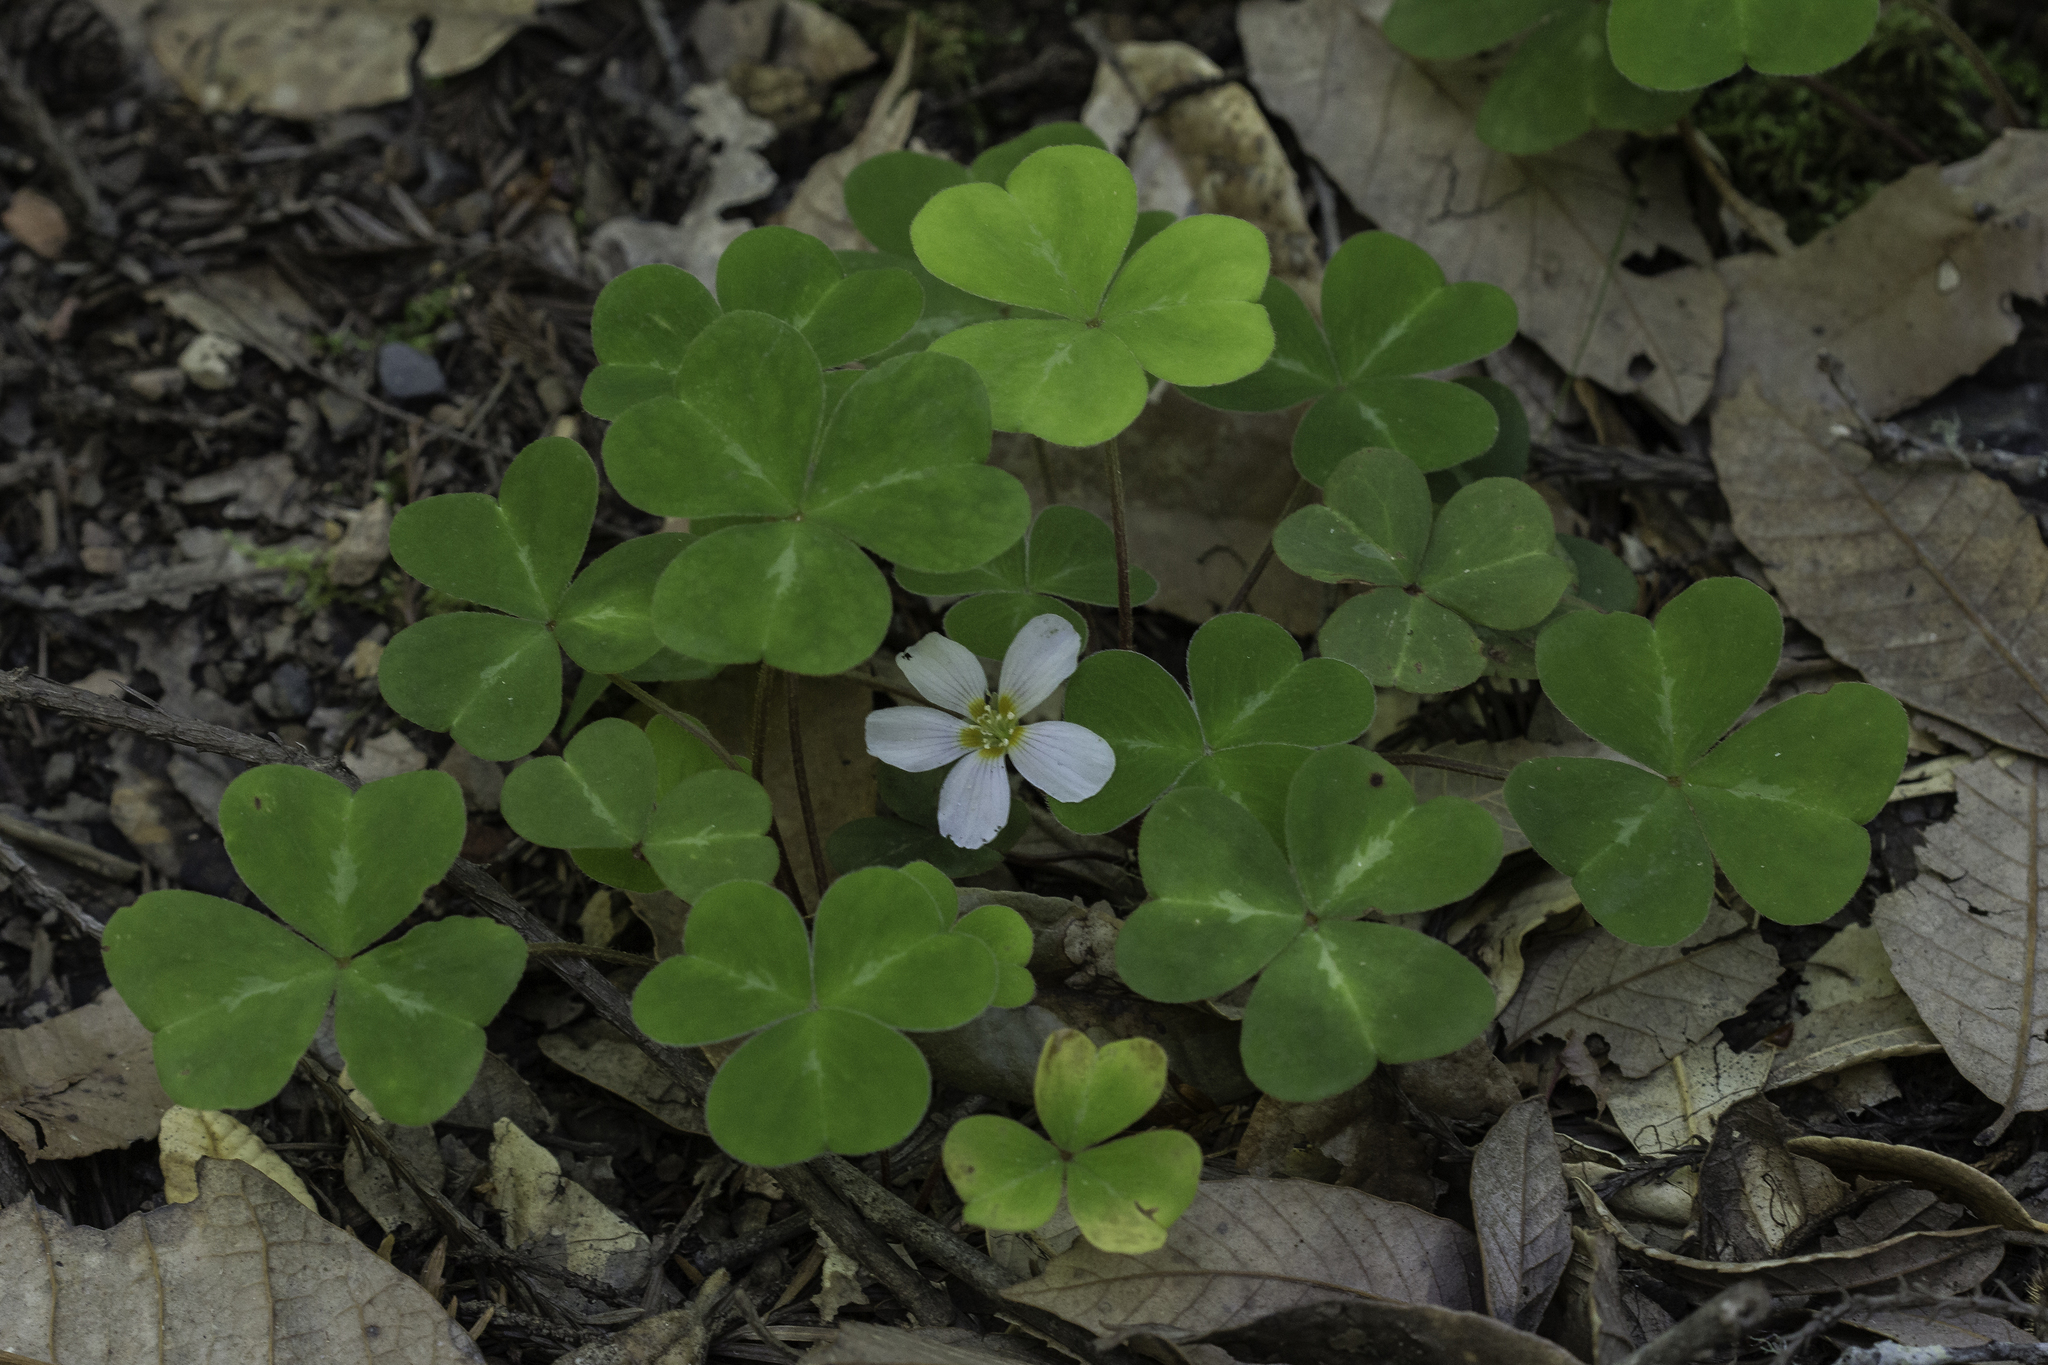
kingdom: Plantae
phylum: Tracheophyta
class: Magnoliopsida
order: Oxalidales
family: Oxalidaceae
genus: Oxalis
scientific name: Oxalis oregana
